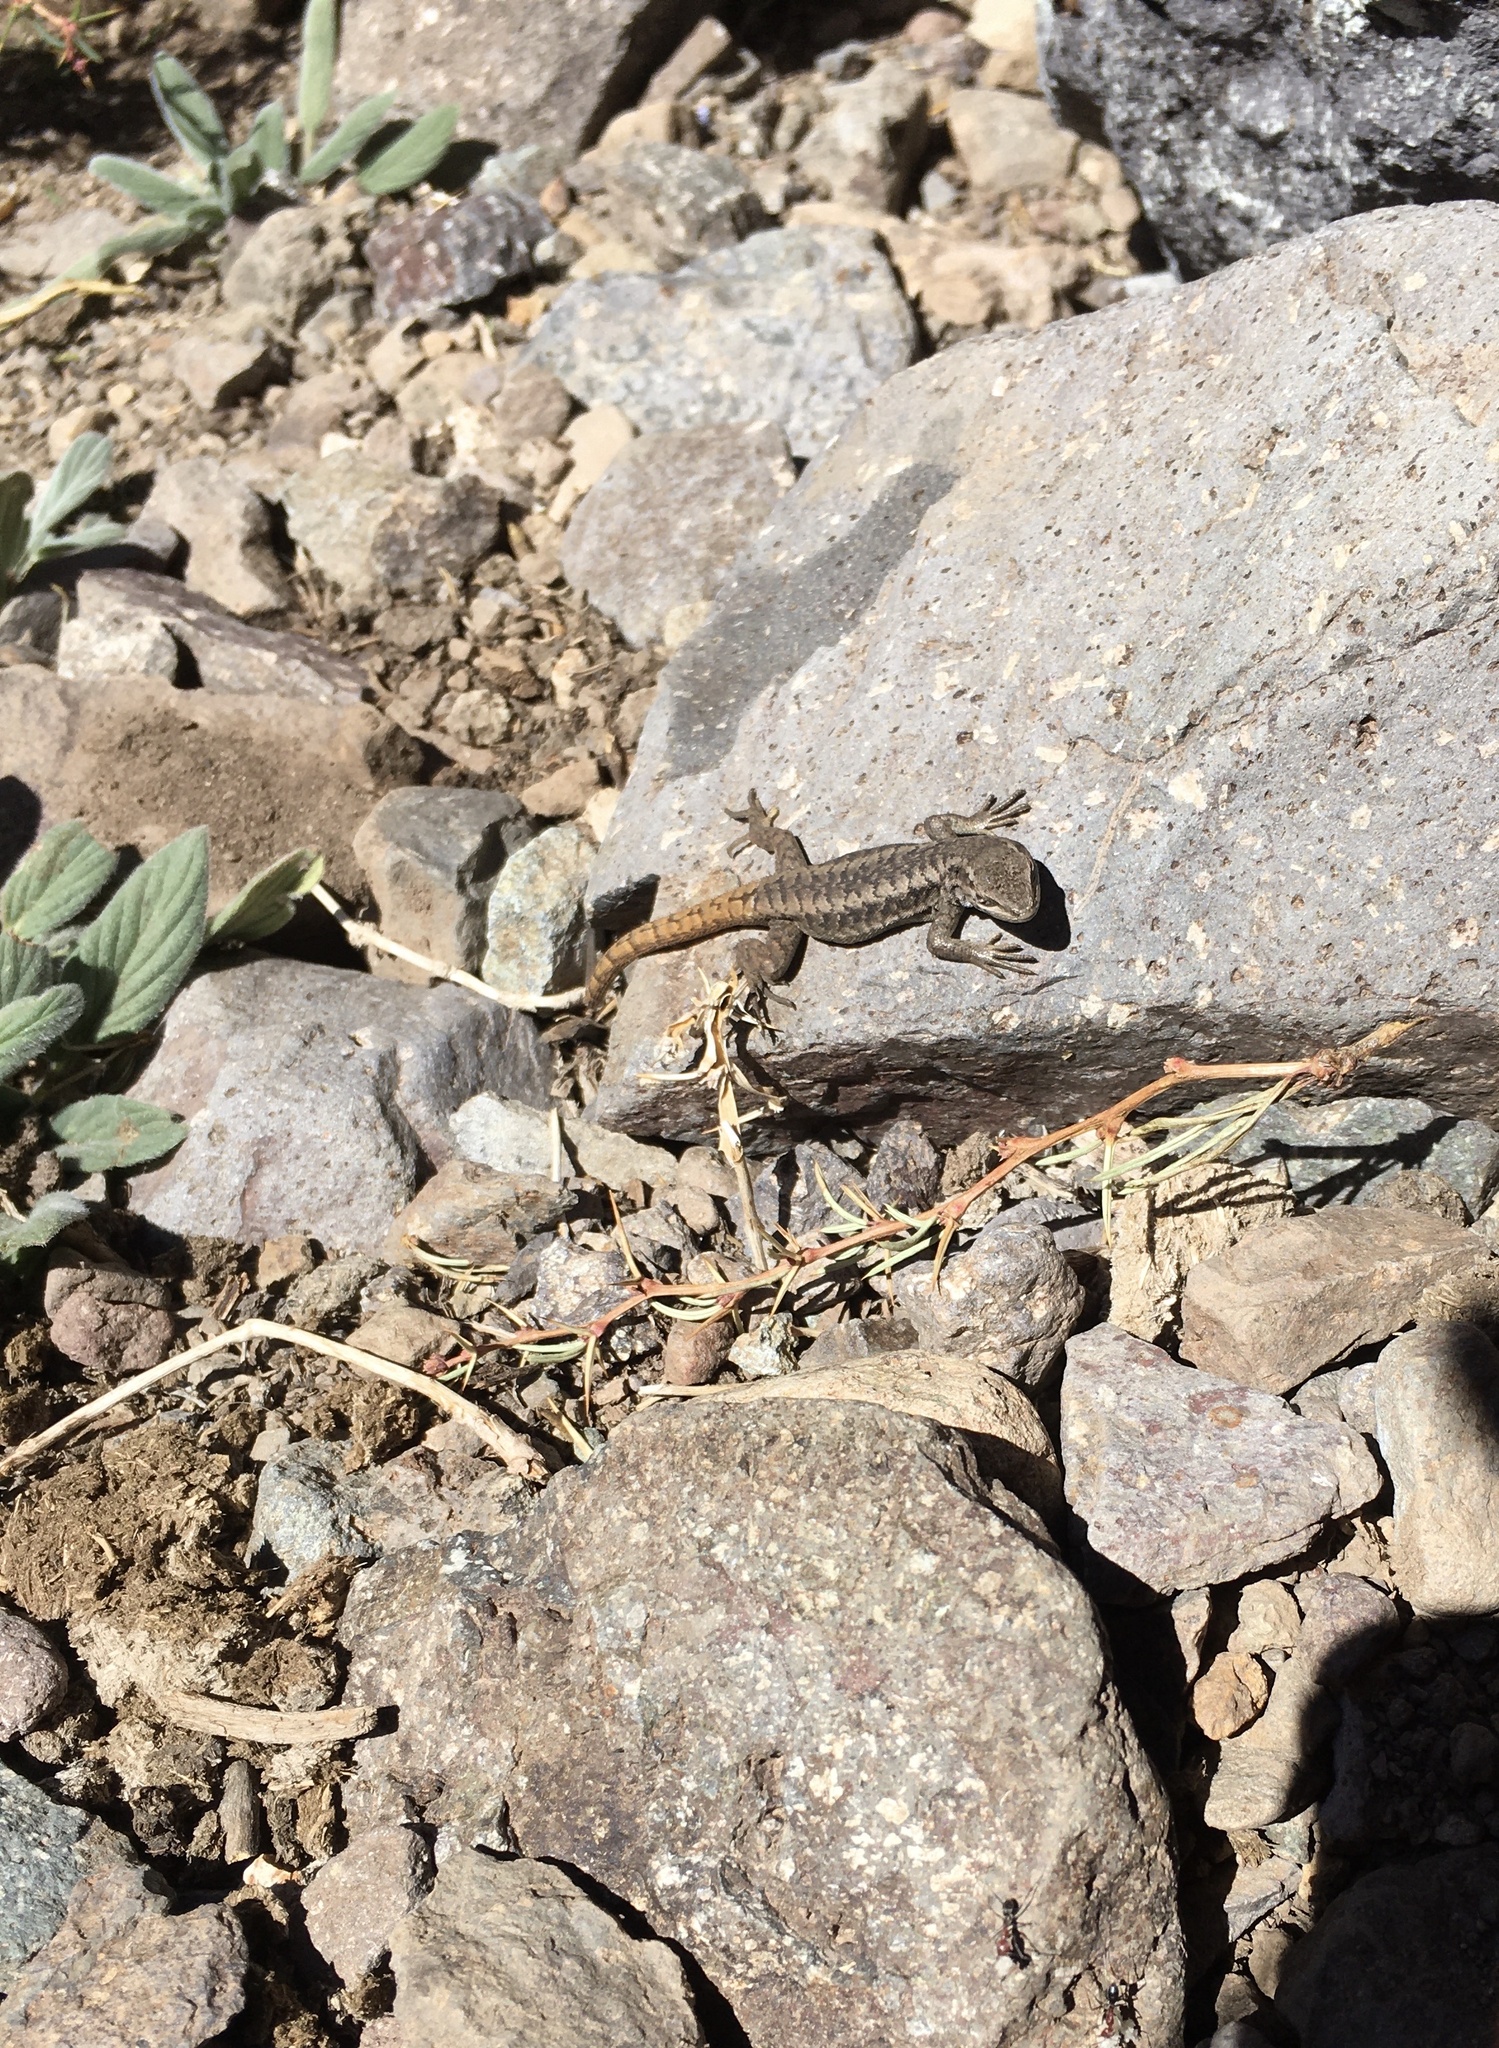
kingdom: Animalia
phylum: Chordata
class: Squamata
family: Liolaemidae
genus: Liolaemus
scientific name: Liolaemus fitzgeraldi
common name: Fitzgerald's tree iguana
